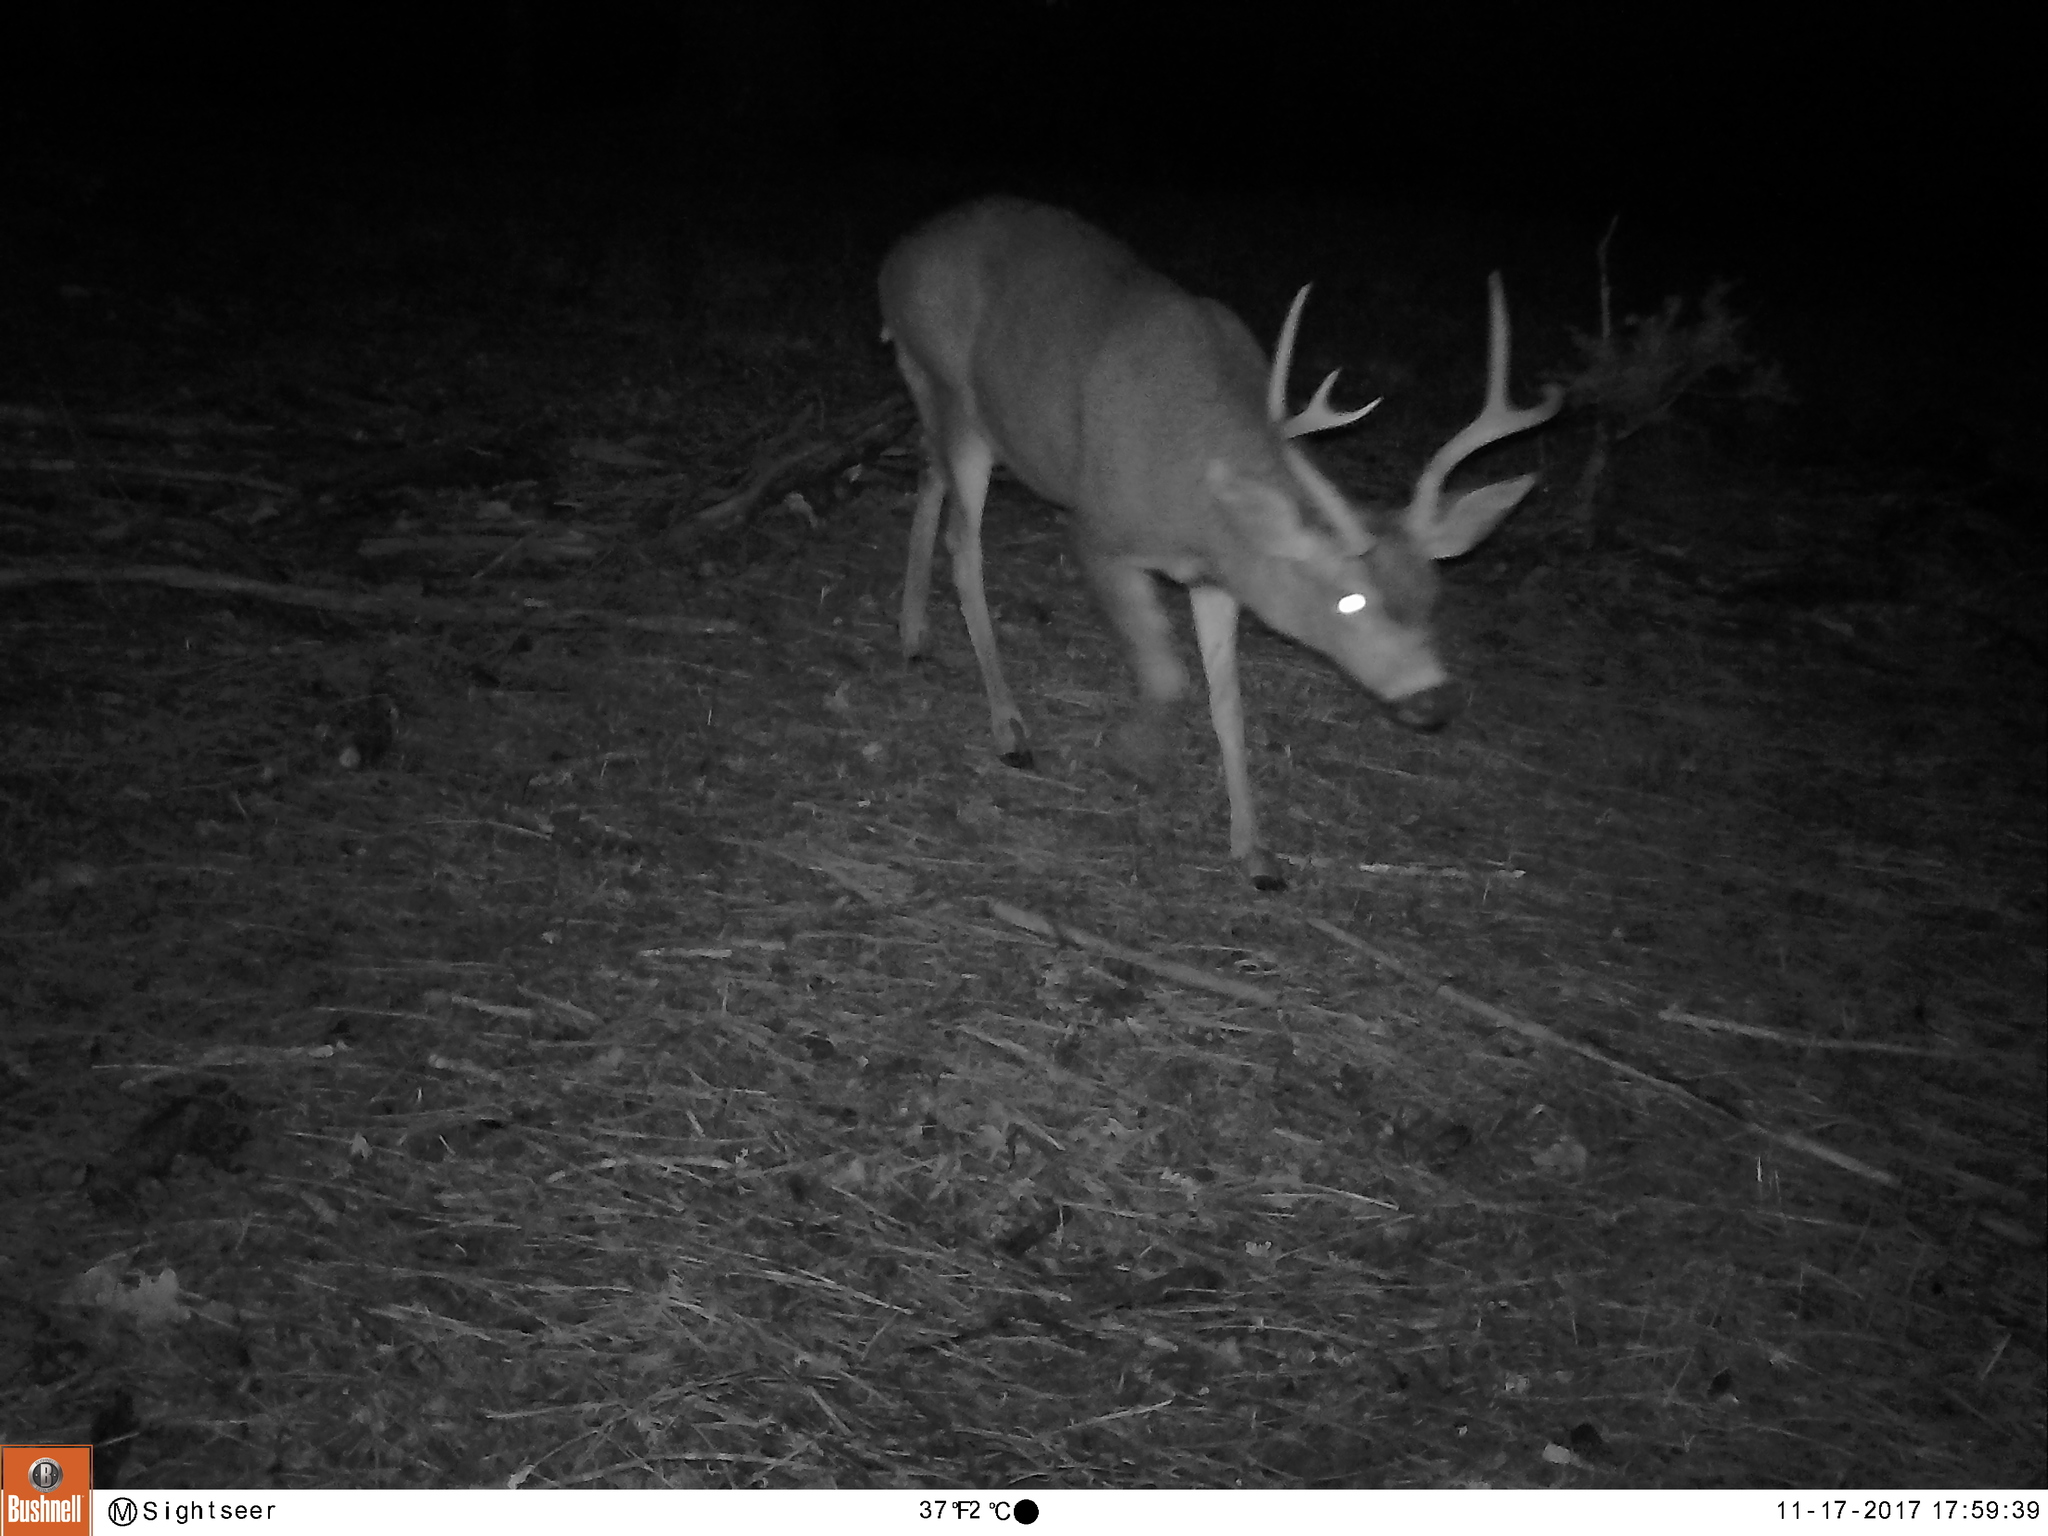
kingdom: Animalia
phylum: Chordata
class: Mammalia
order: Artiodactyla
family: Cervidae
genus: Odocoileus
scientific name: Odocoileus hemionus
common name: Mule deer
